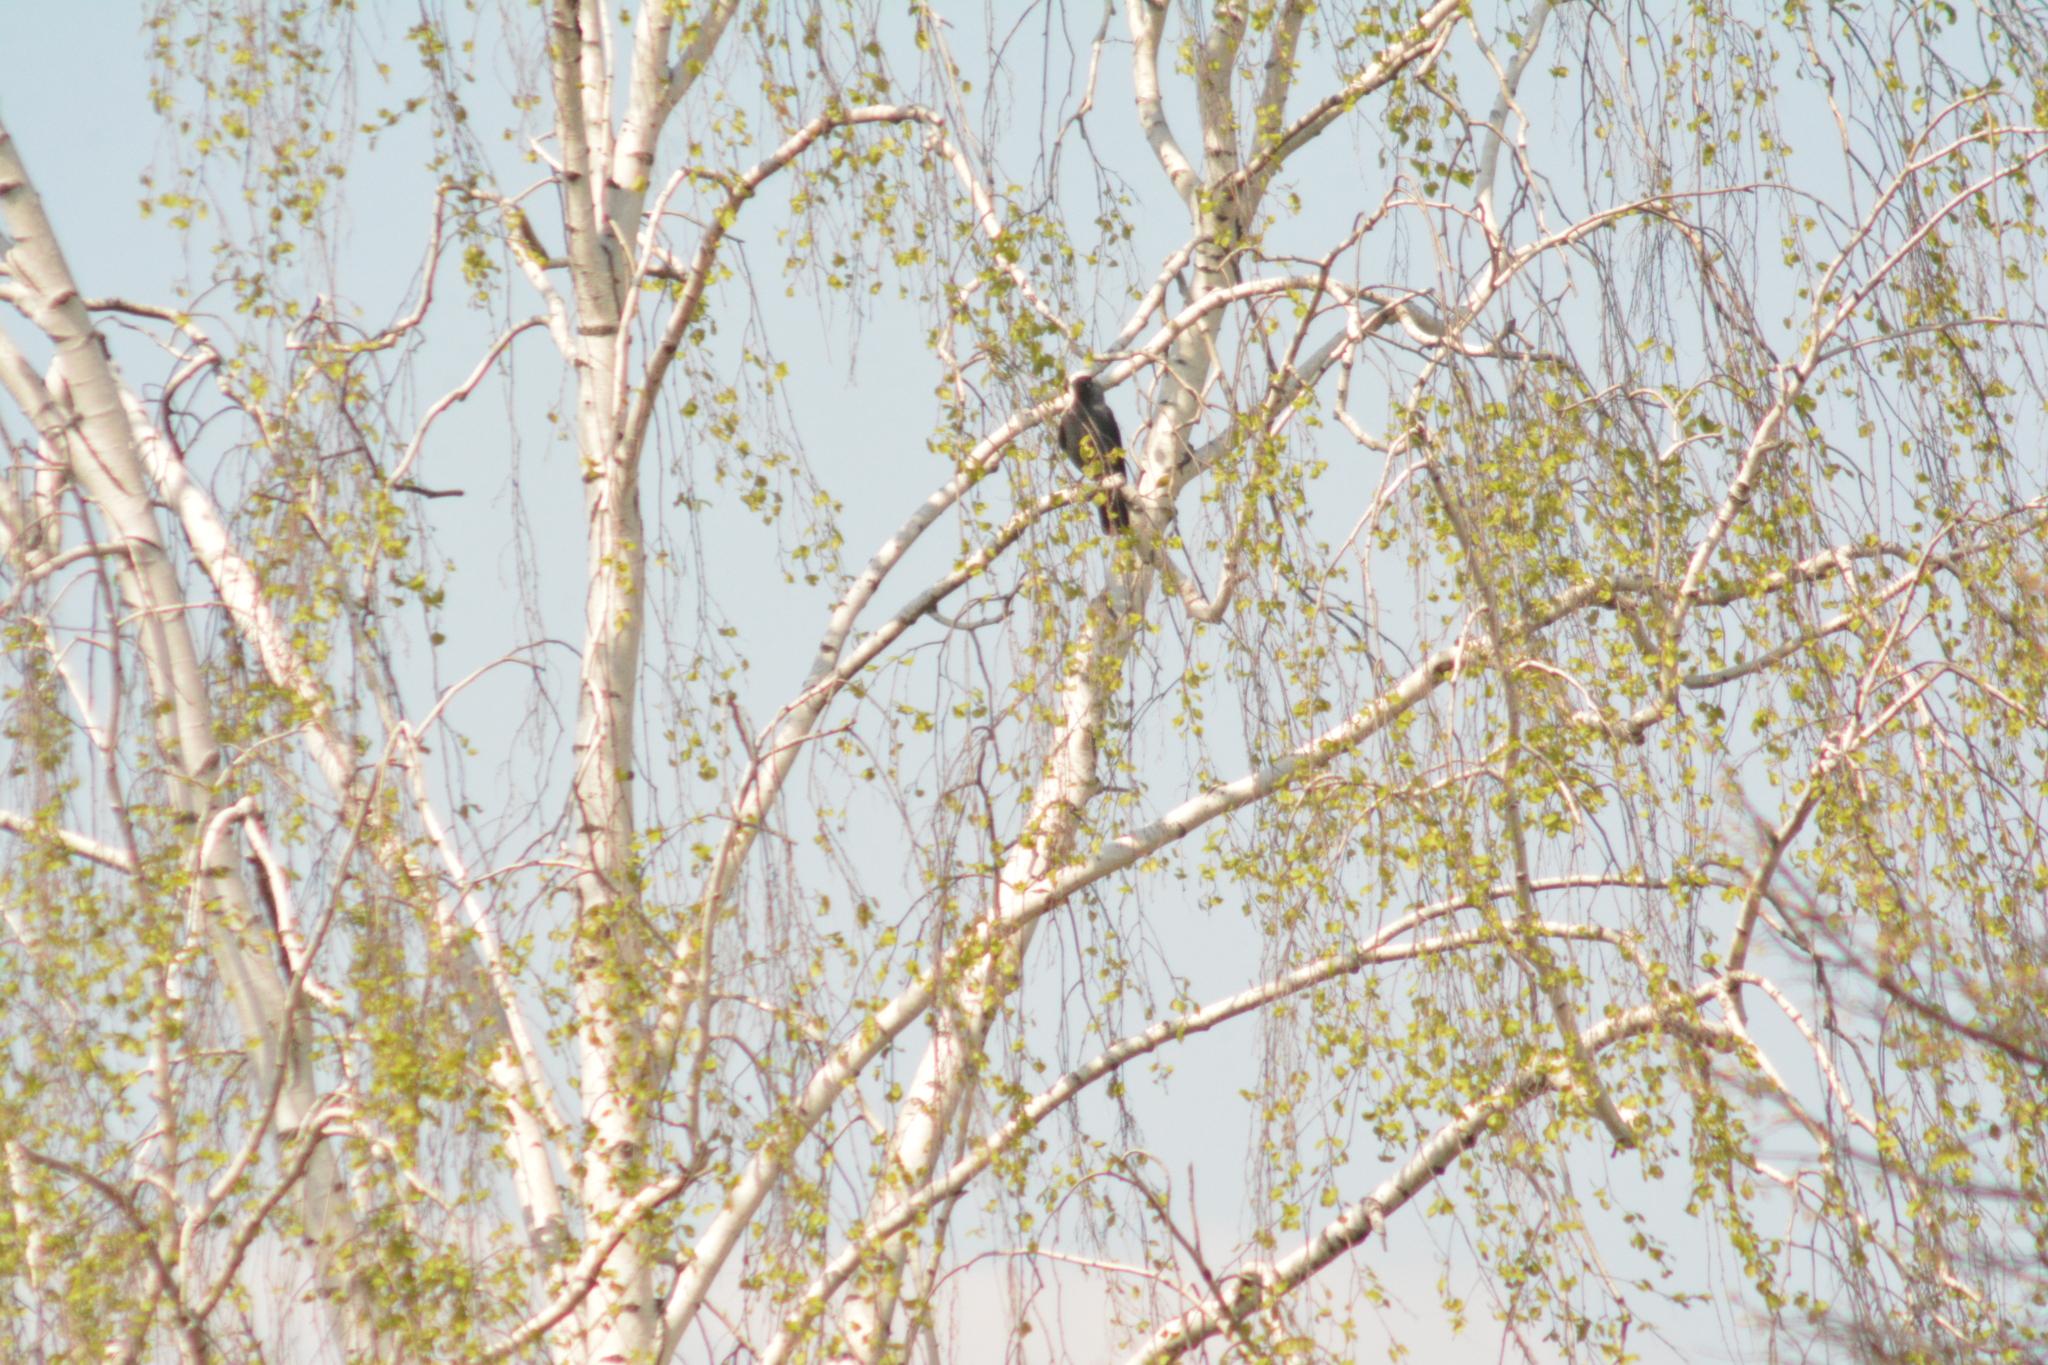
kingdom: Animalia
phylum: Chordata
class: Aves
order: Passeriformes
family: Corvidae
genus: Coloeus
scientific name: Coloeus monedula
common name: Western jackdaw
